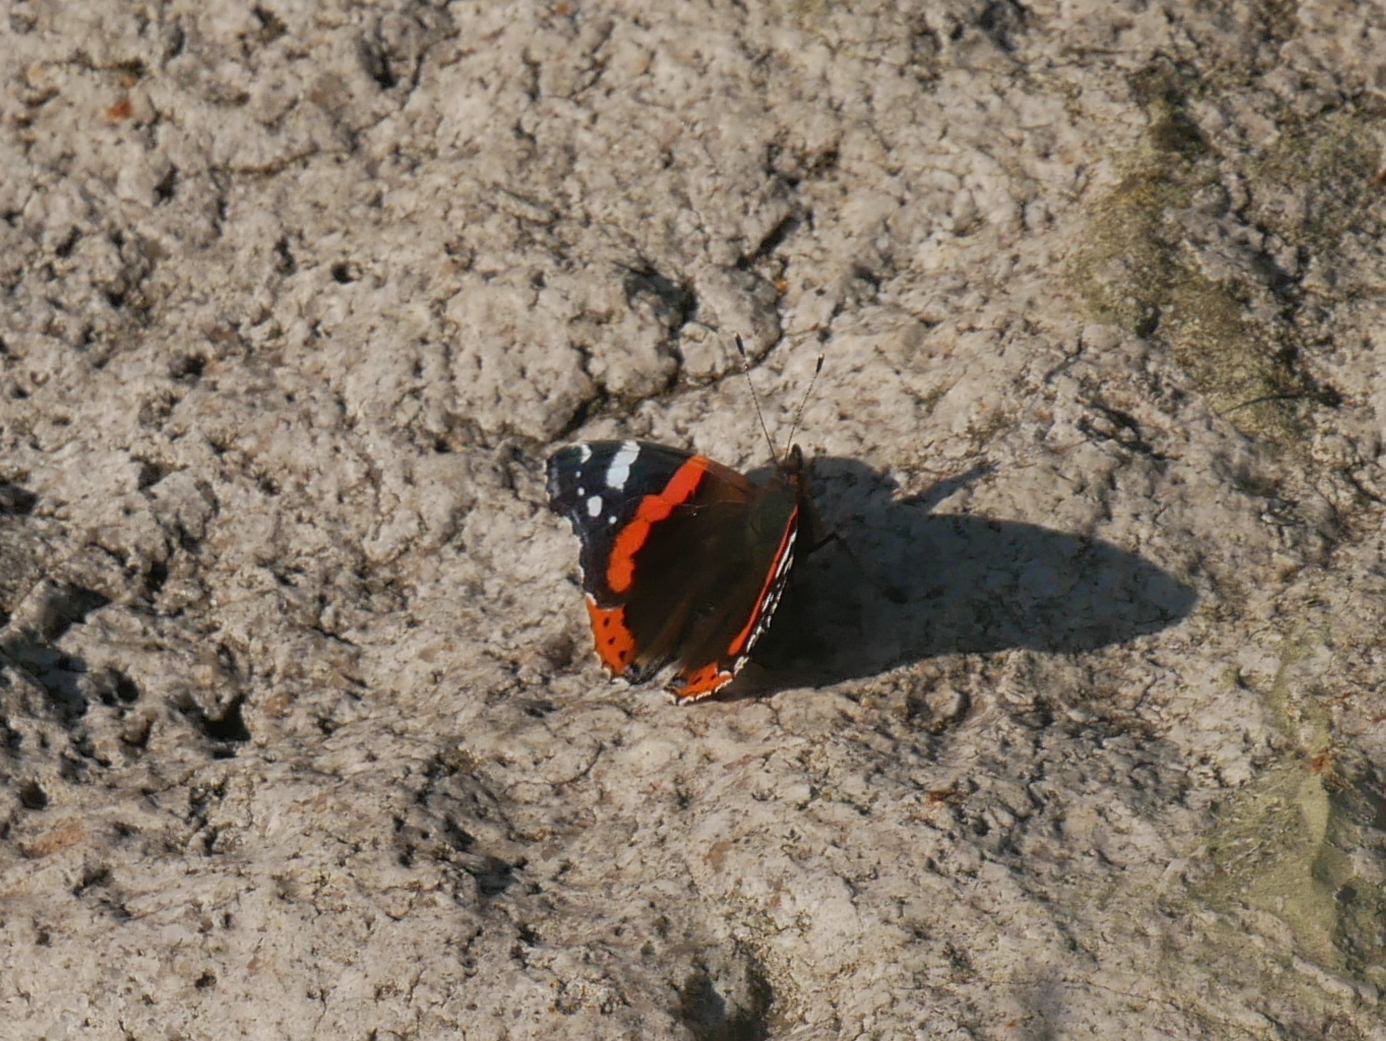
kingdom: Animalia
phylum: Arthropoda
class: Insecta
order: Lepidoptera
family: Nymphalidae
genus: Vanessa
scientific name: Vanessa atalanta
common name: Red admiral
